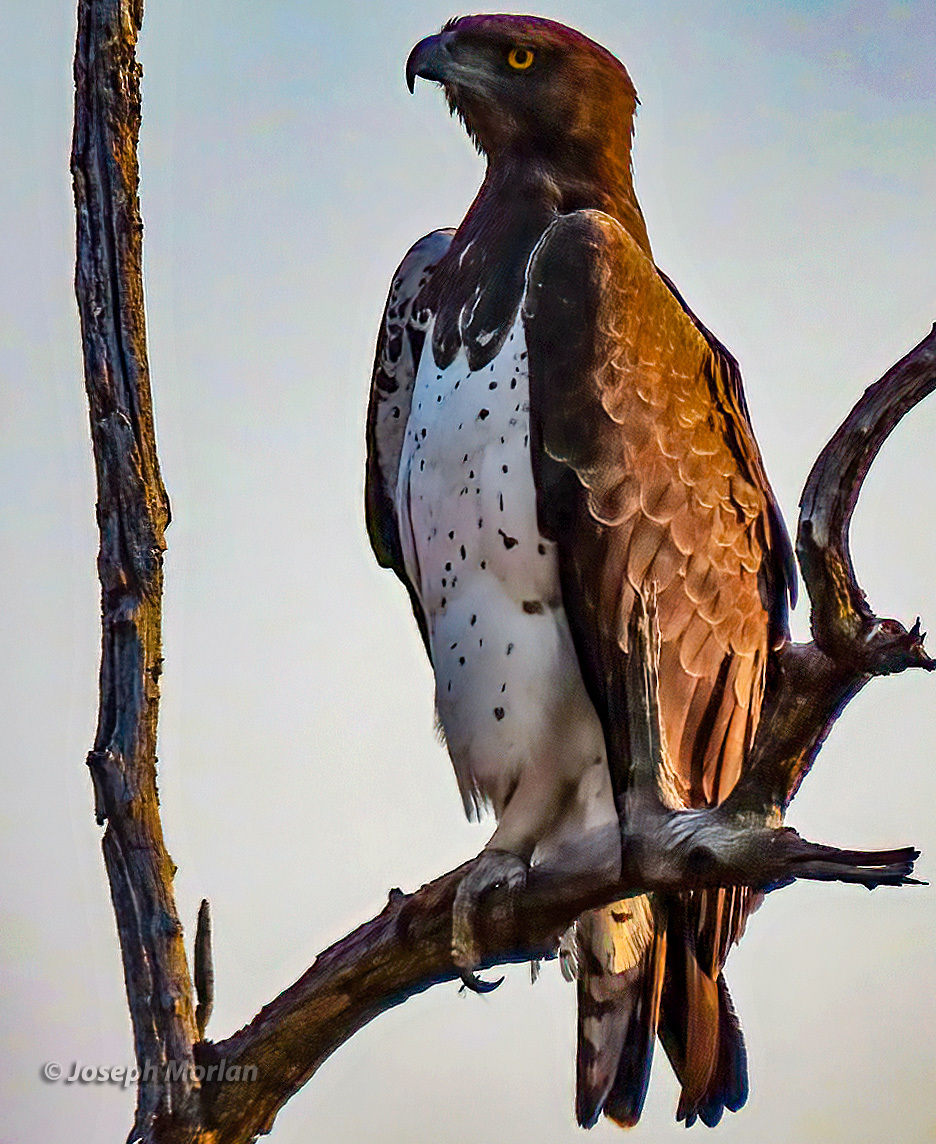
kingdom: Animalia
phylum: Chordata
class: Aves
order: Accipitriformes
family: Accipitridae
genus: Polemaetus
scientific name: Polemaetus bellicosus
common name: Martial eagle
